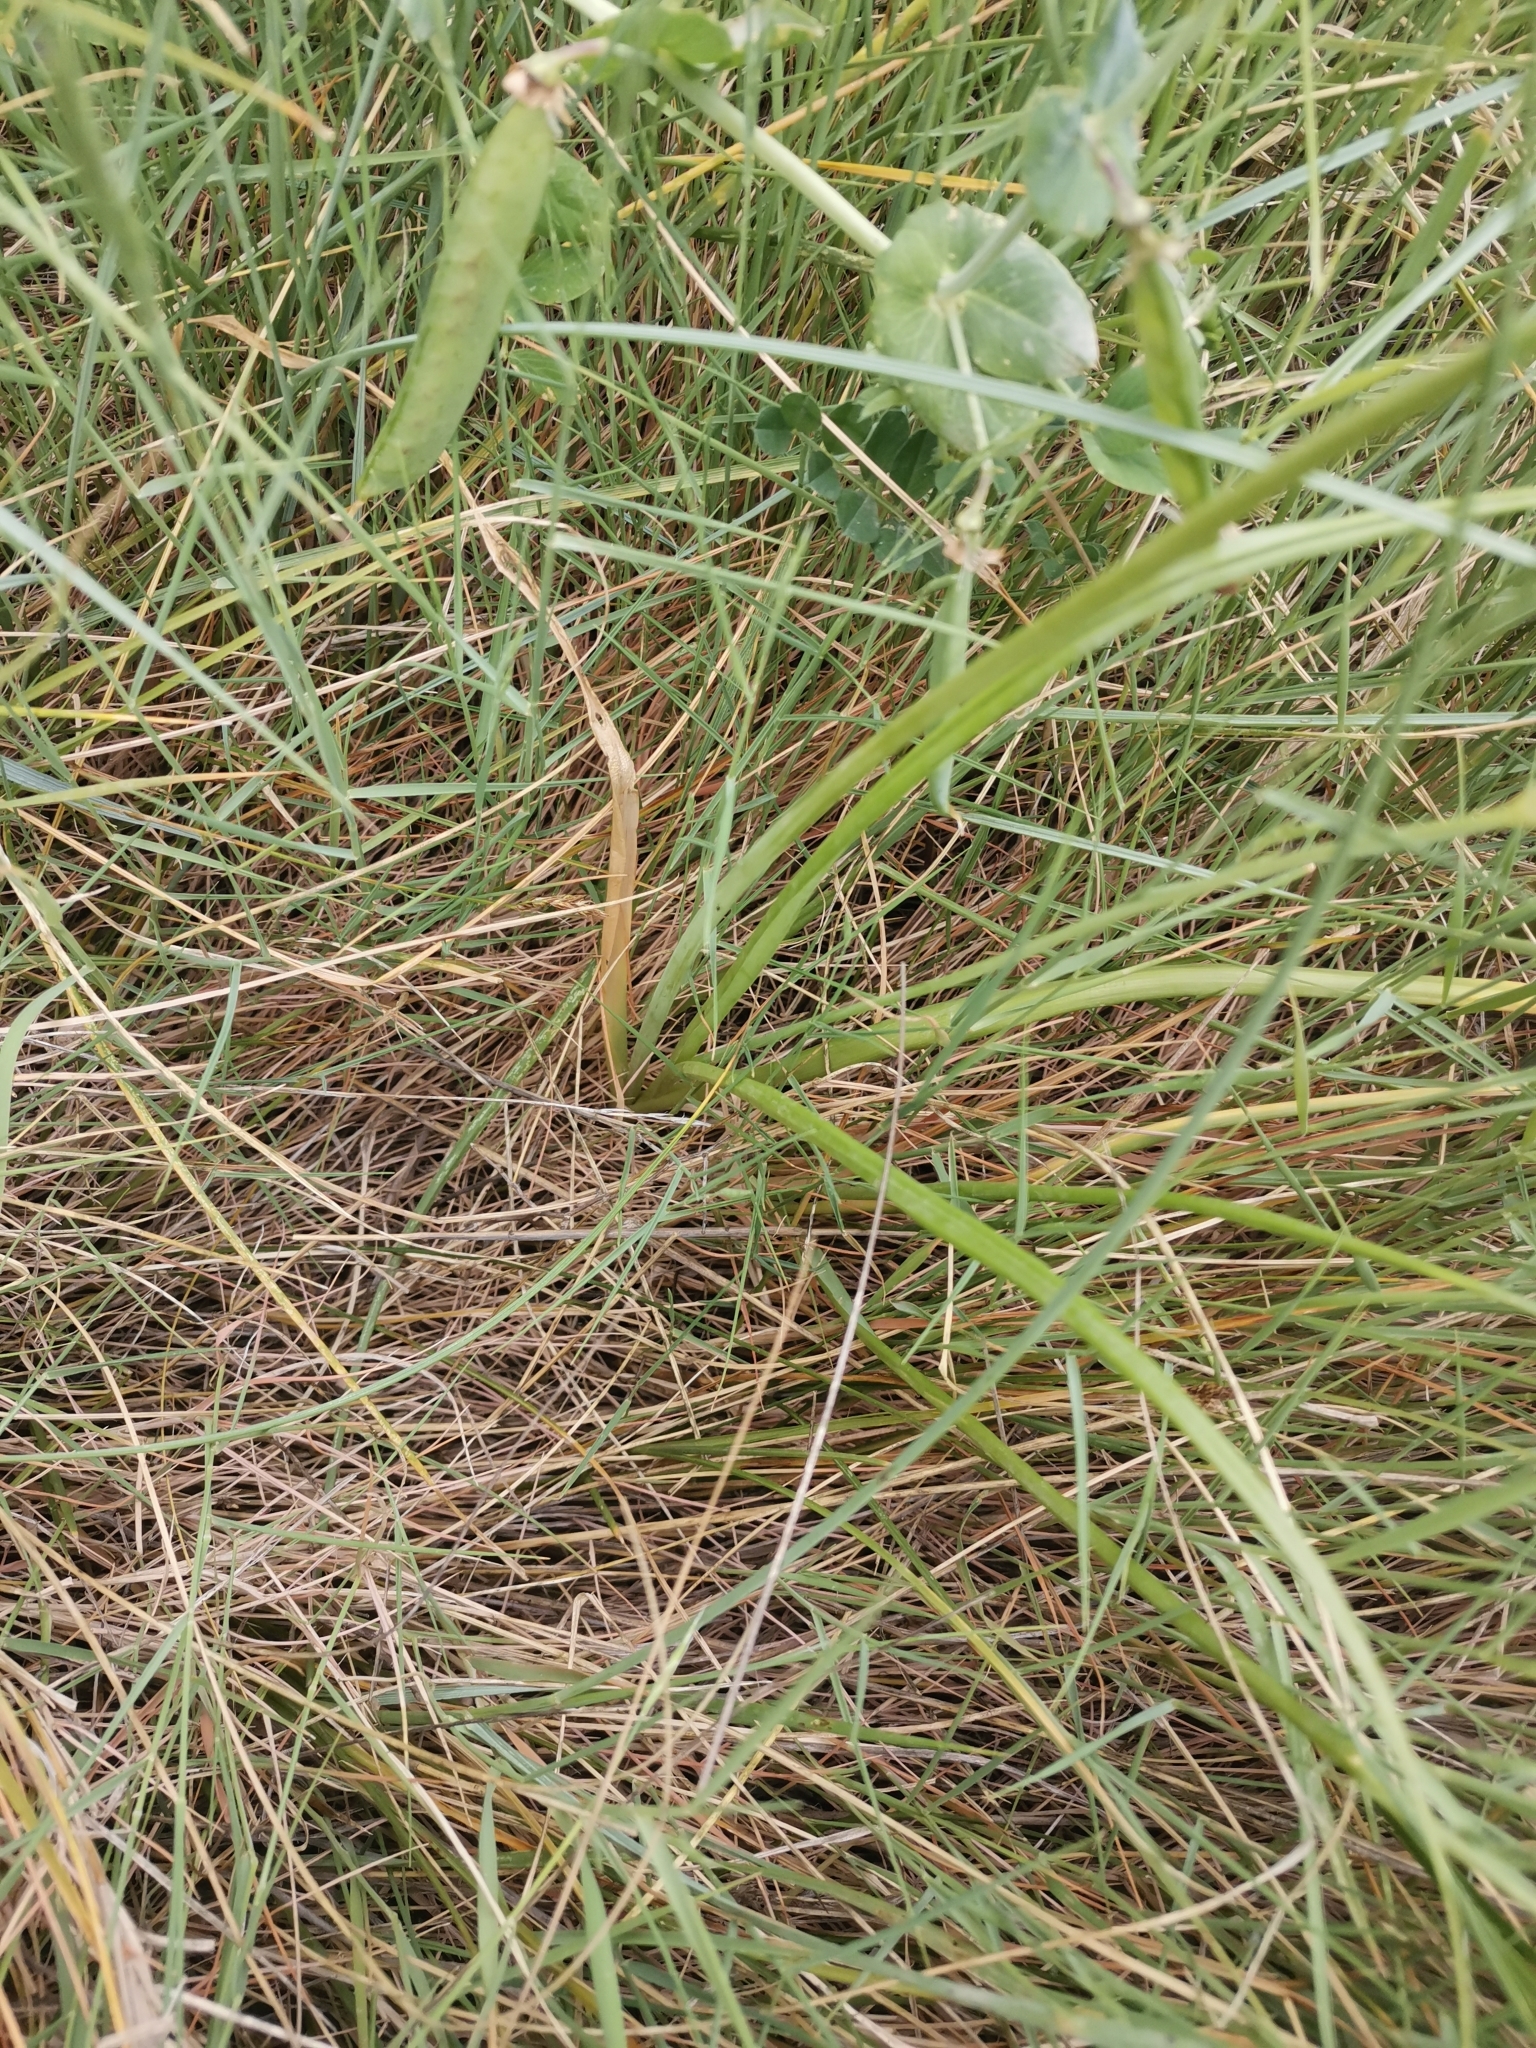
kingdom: Plantae
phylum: Tracheophyta
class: Liliopsida
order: Asparagales
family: Amaryllidaceae
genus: Allium
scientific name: Allium roseum
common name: Rosy garlic
